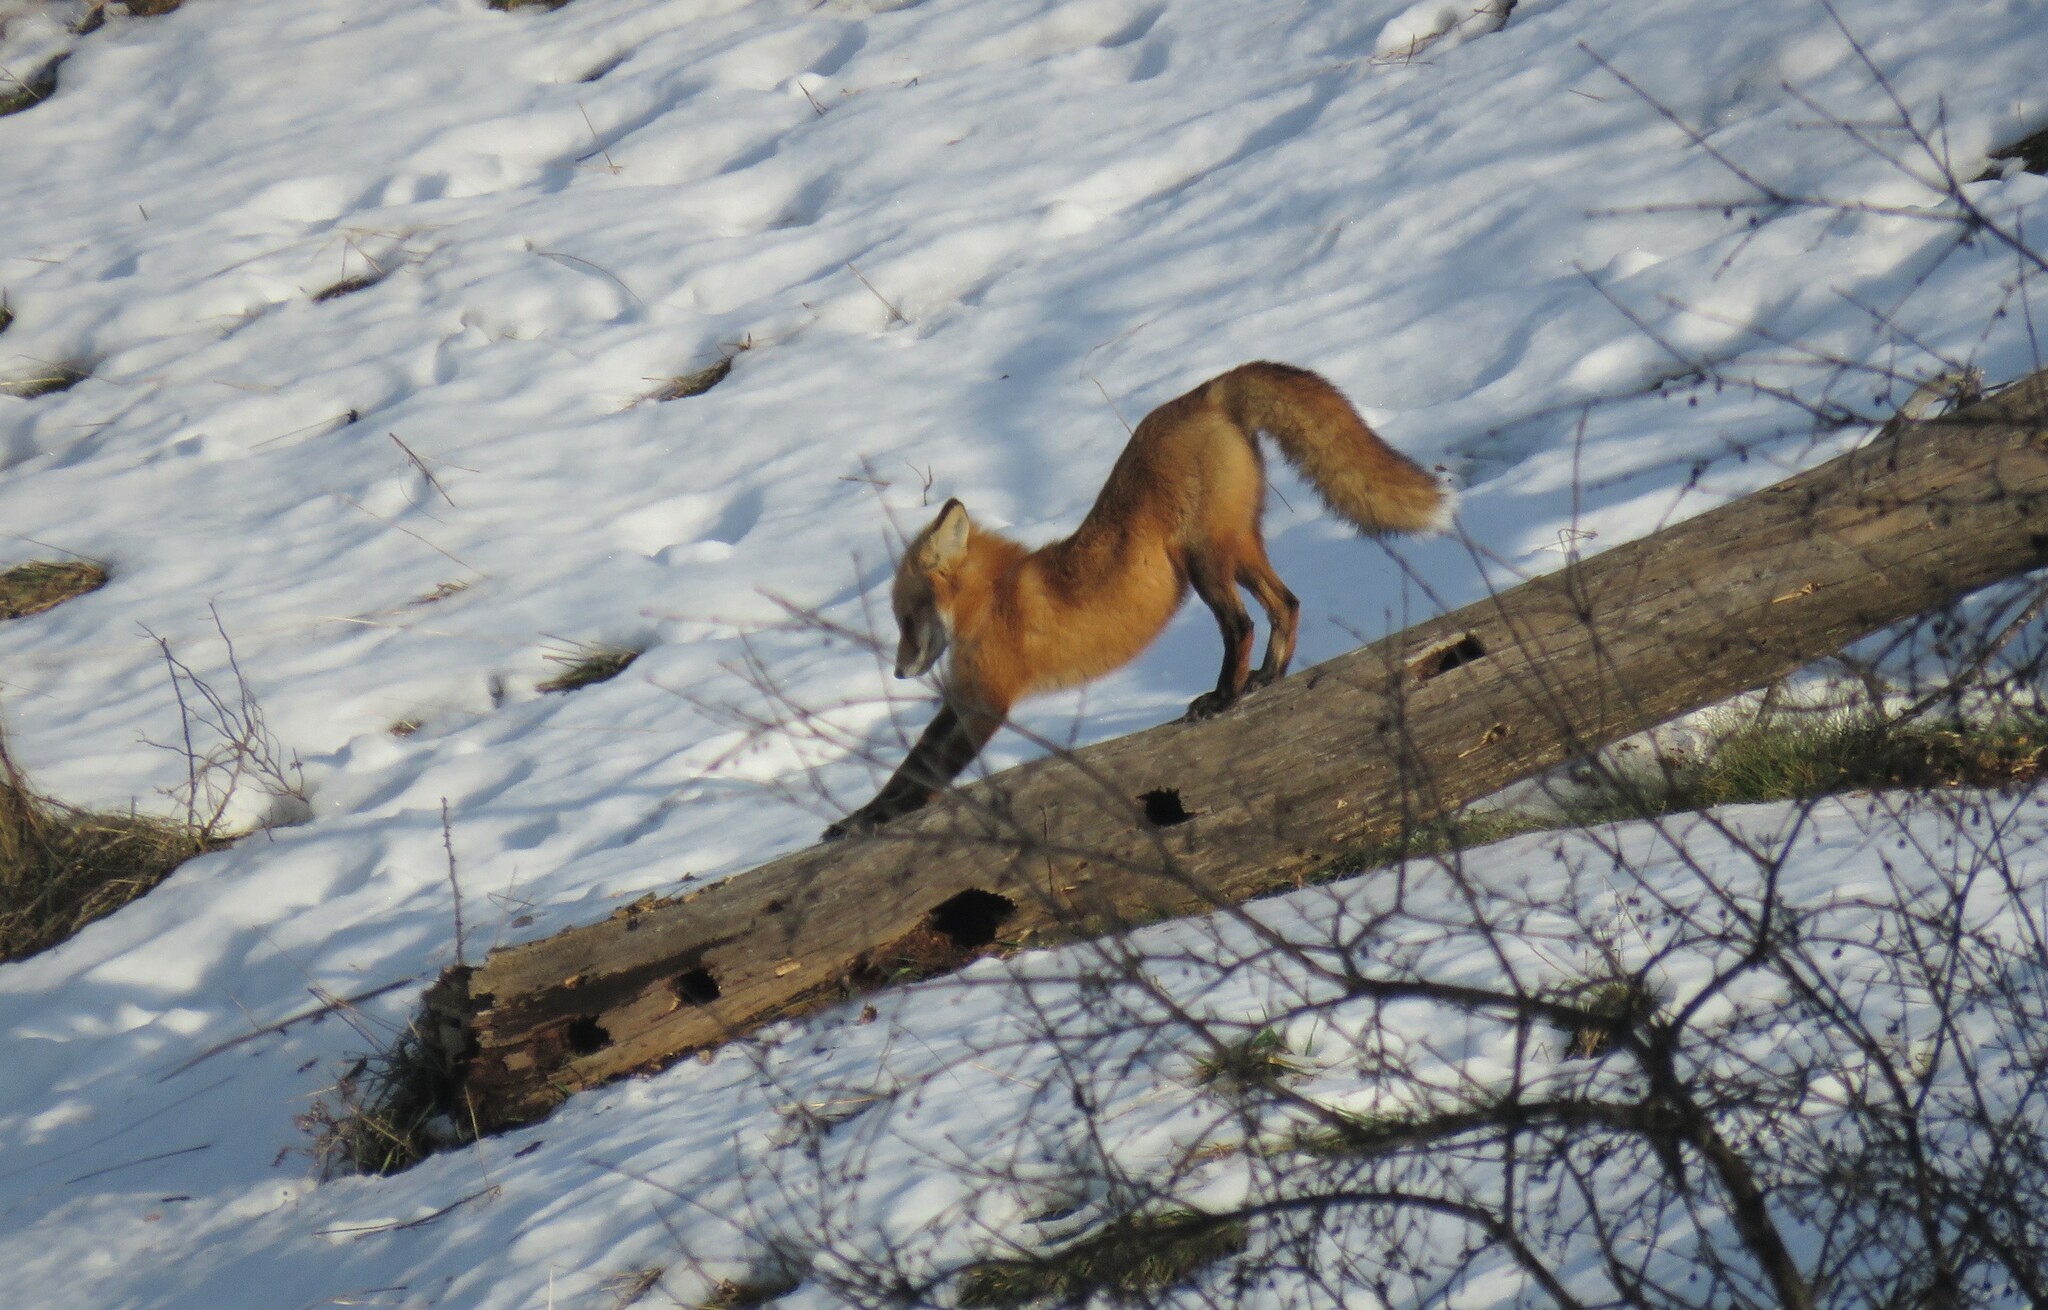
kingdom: Animalia
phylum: Chordata
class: Mammalia
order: Carnivora
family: Canidae
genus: Vulpes
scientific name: Vulpes vulpes
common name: Red fox
